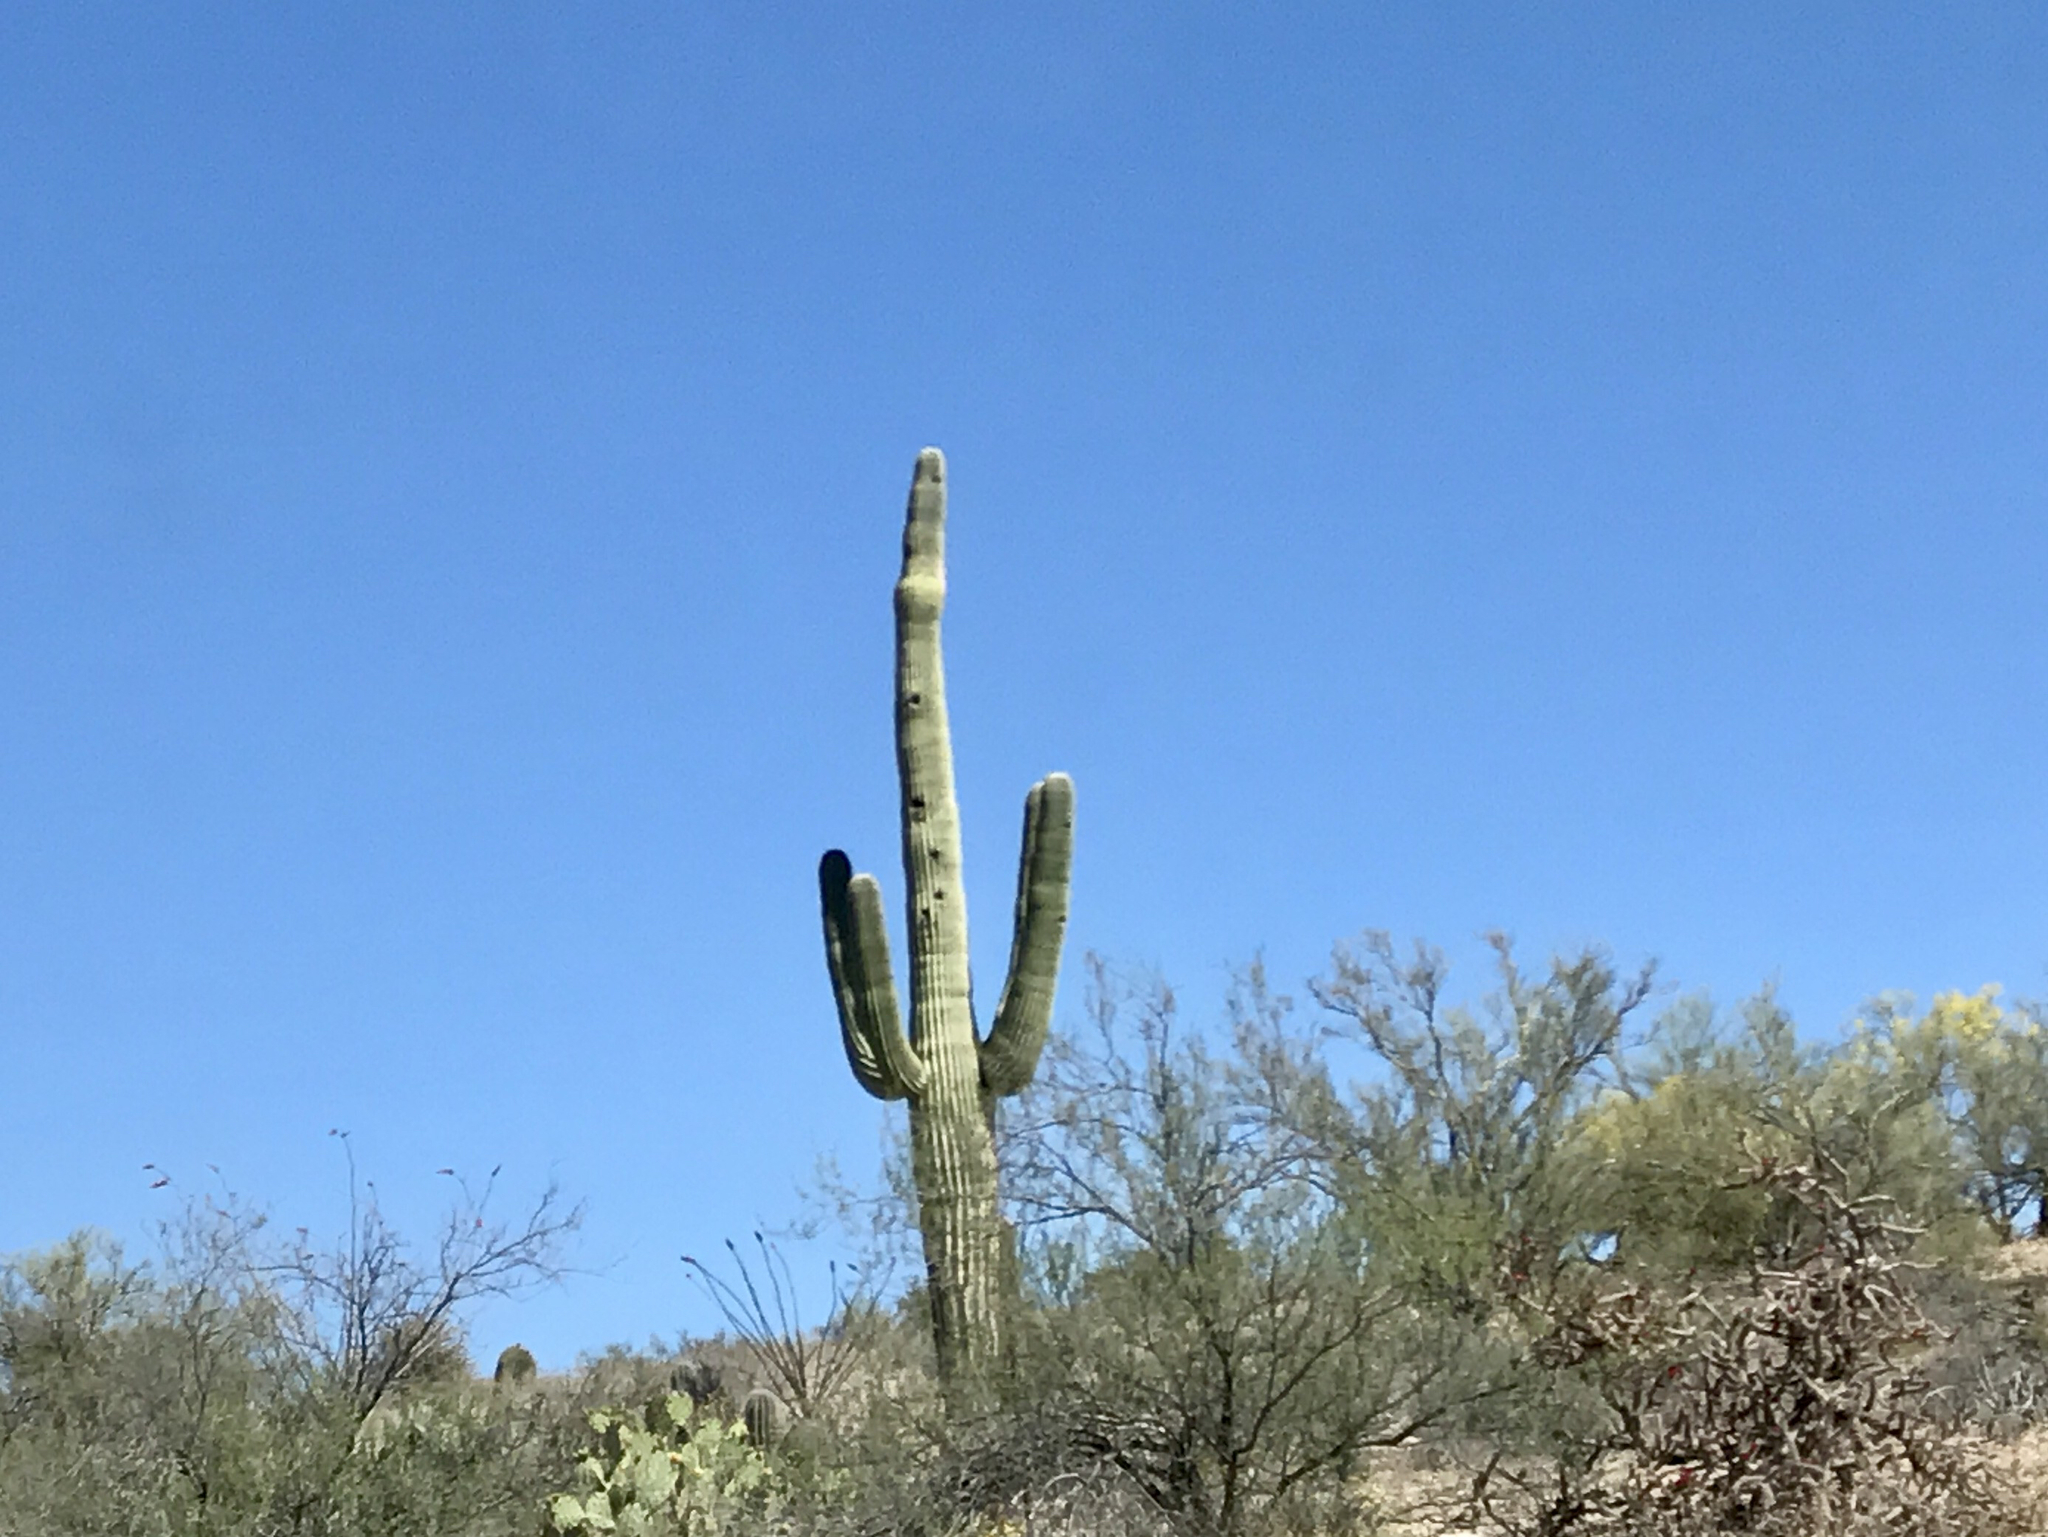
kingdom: Plantae
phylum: Tracheophyta
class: Magnoliopsida
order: Caryophyllales
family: Cactaceae
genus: Carnegiea
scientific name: Carnegiea gigantea
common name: Saguaro
